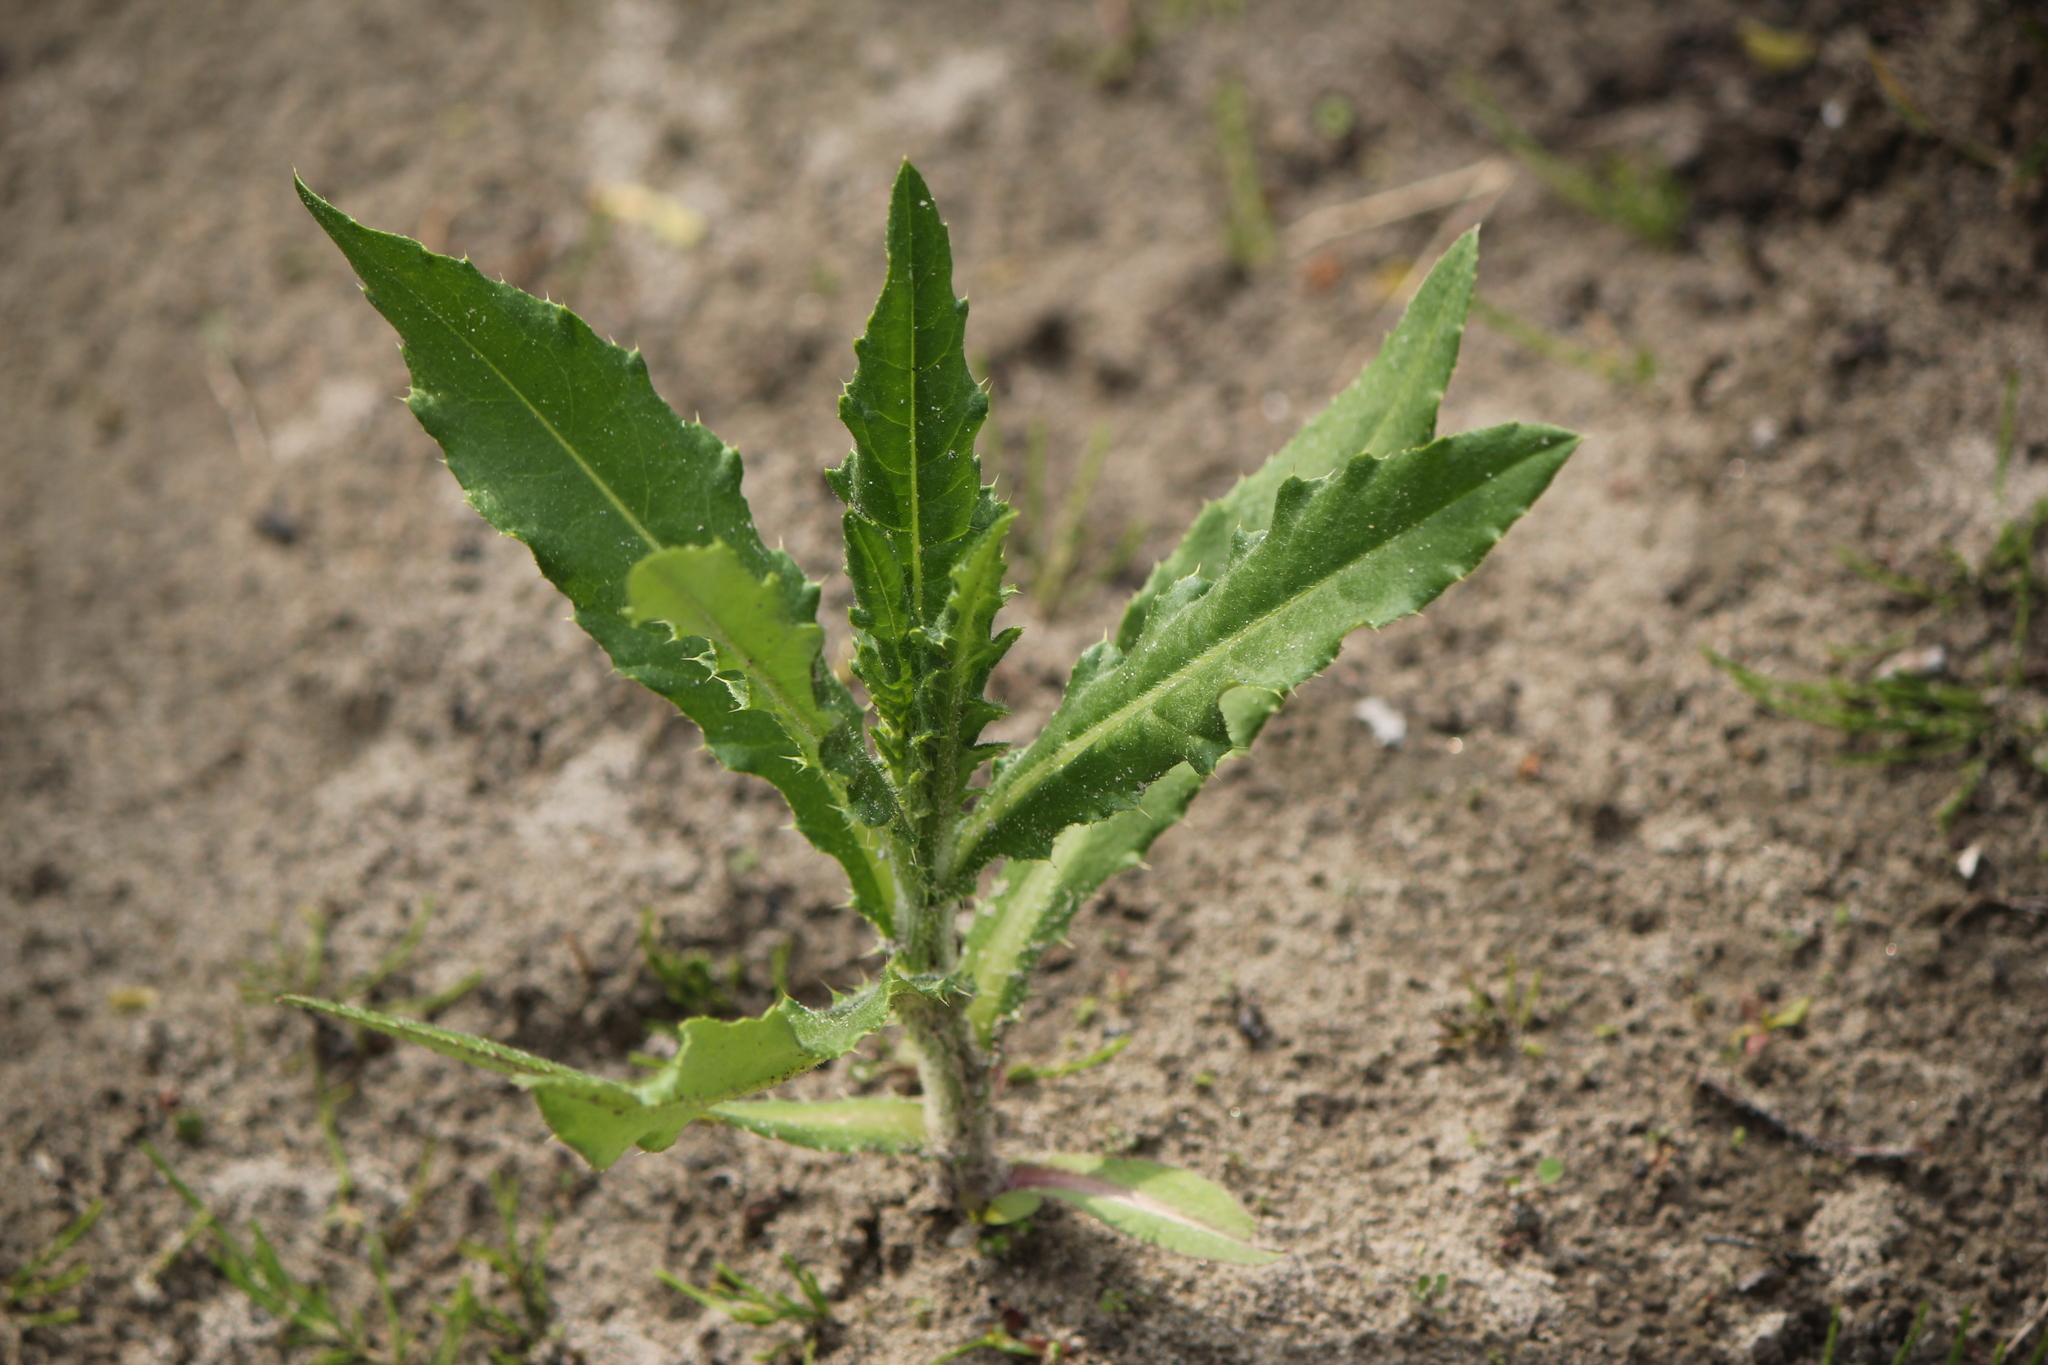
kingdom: Plantae
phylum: Tracheophyta
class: Magnoliopsida
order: Asterales
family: Asteraceae
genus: Cirsium
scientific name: Cirsium arvense
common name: Creeping thistle
